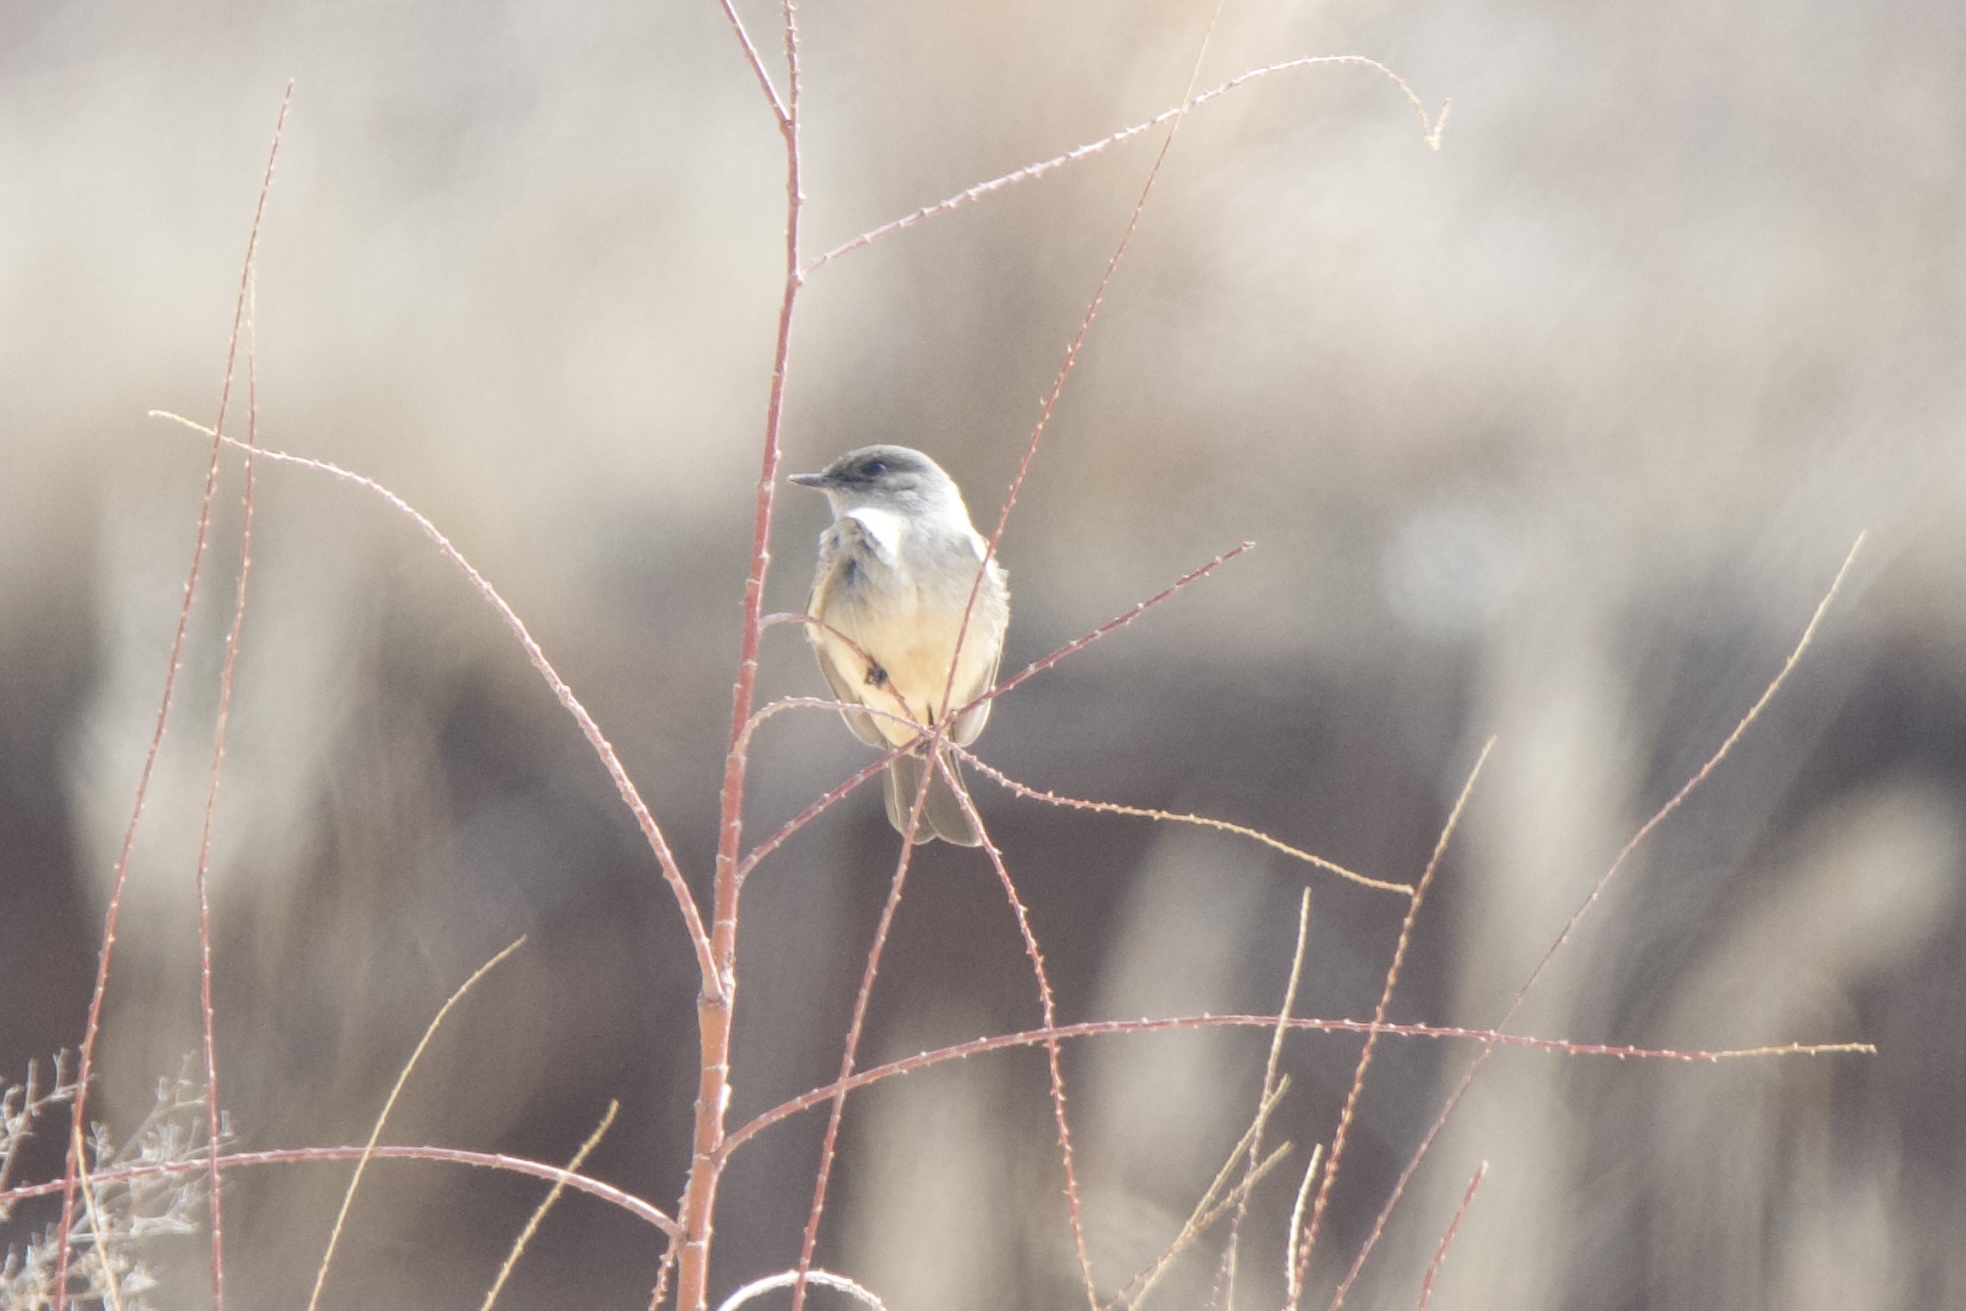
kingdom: Animalia
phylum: Chordata
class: Aves
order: Passeriformes
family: Tyrannidae
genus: Sayornis
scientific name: Sayornis saya
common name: Say's phoebe
